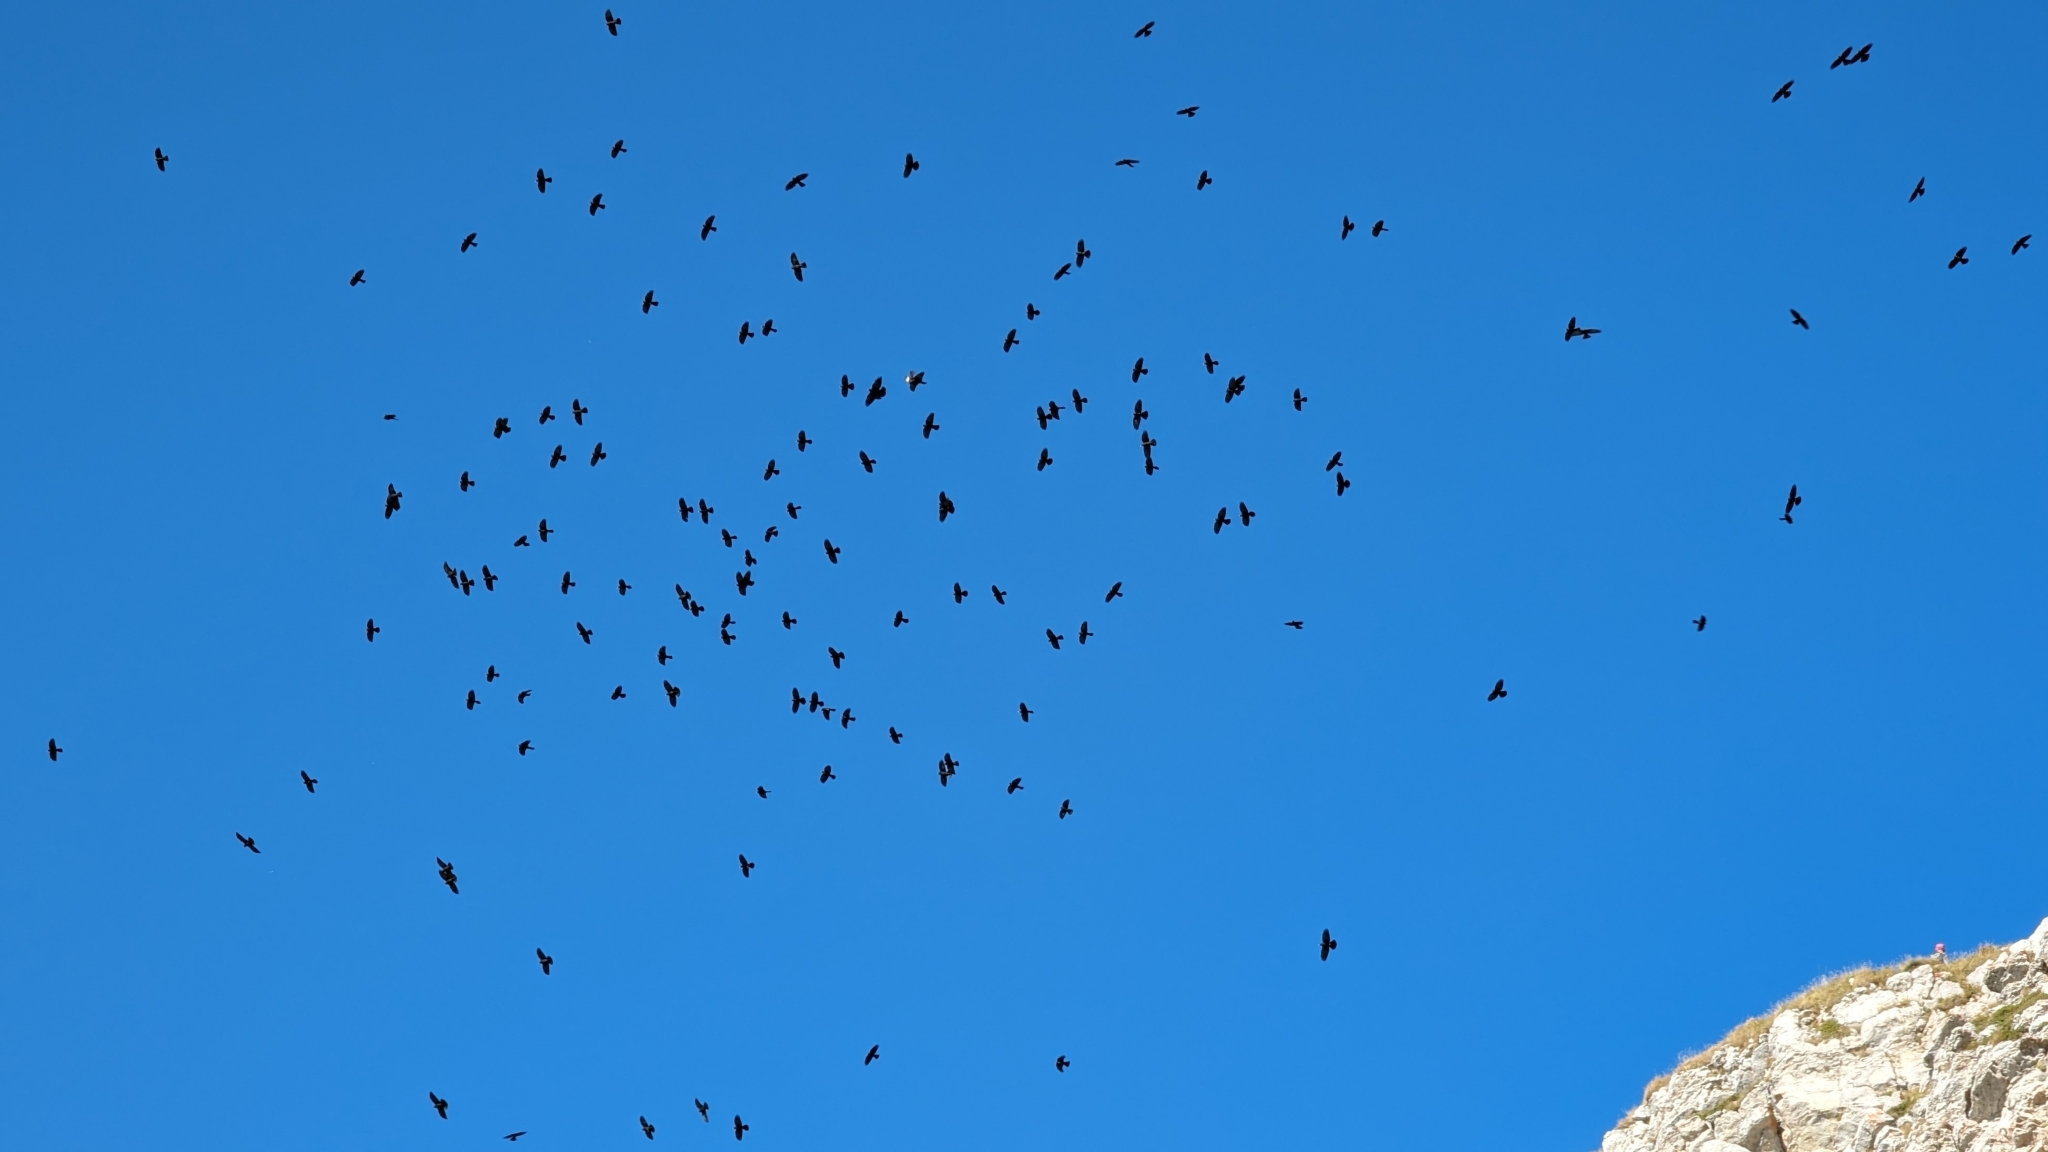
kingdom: Animalia
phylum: Chordata
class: Aves
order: Passeriformes
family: Corvidae
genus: Pyrrhocorax
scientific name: Pyrrhocorax graculus
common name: Alpine chough
